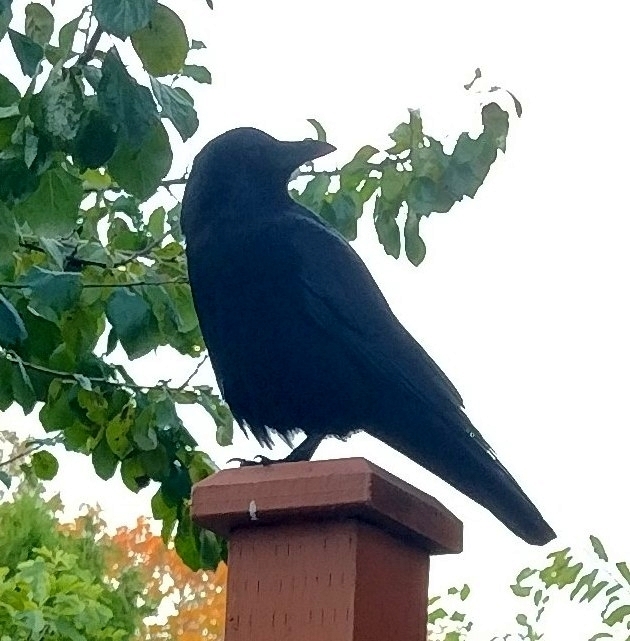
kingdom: Animalia
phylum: Chordata
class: Aves
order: Passeriformes
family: Corvidae
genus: Corvus
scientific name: Corvus brachyrhynchos
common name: American crow
